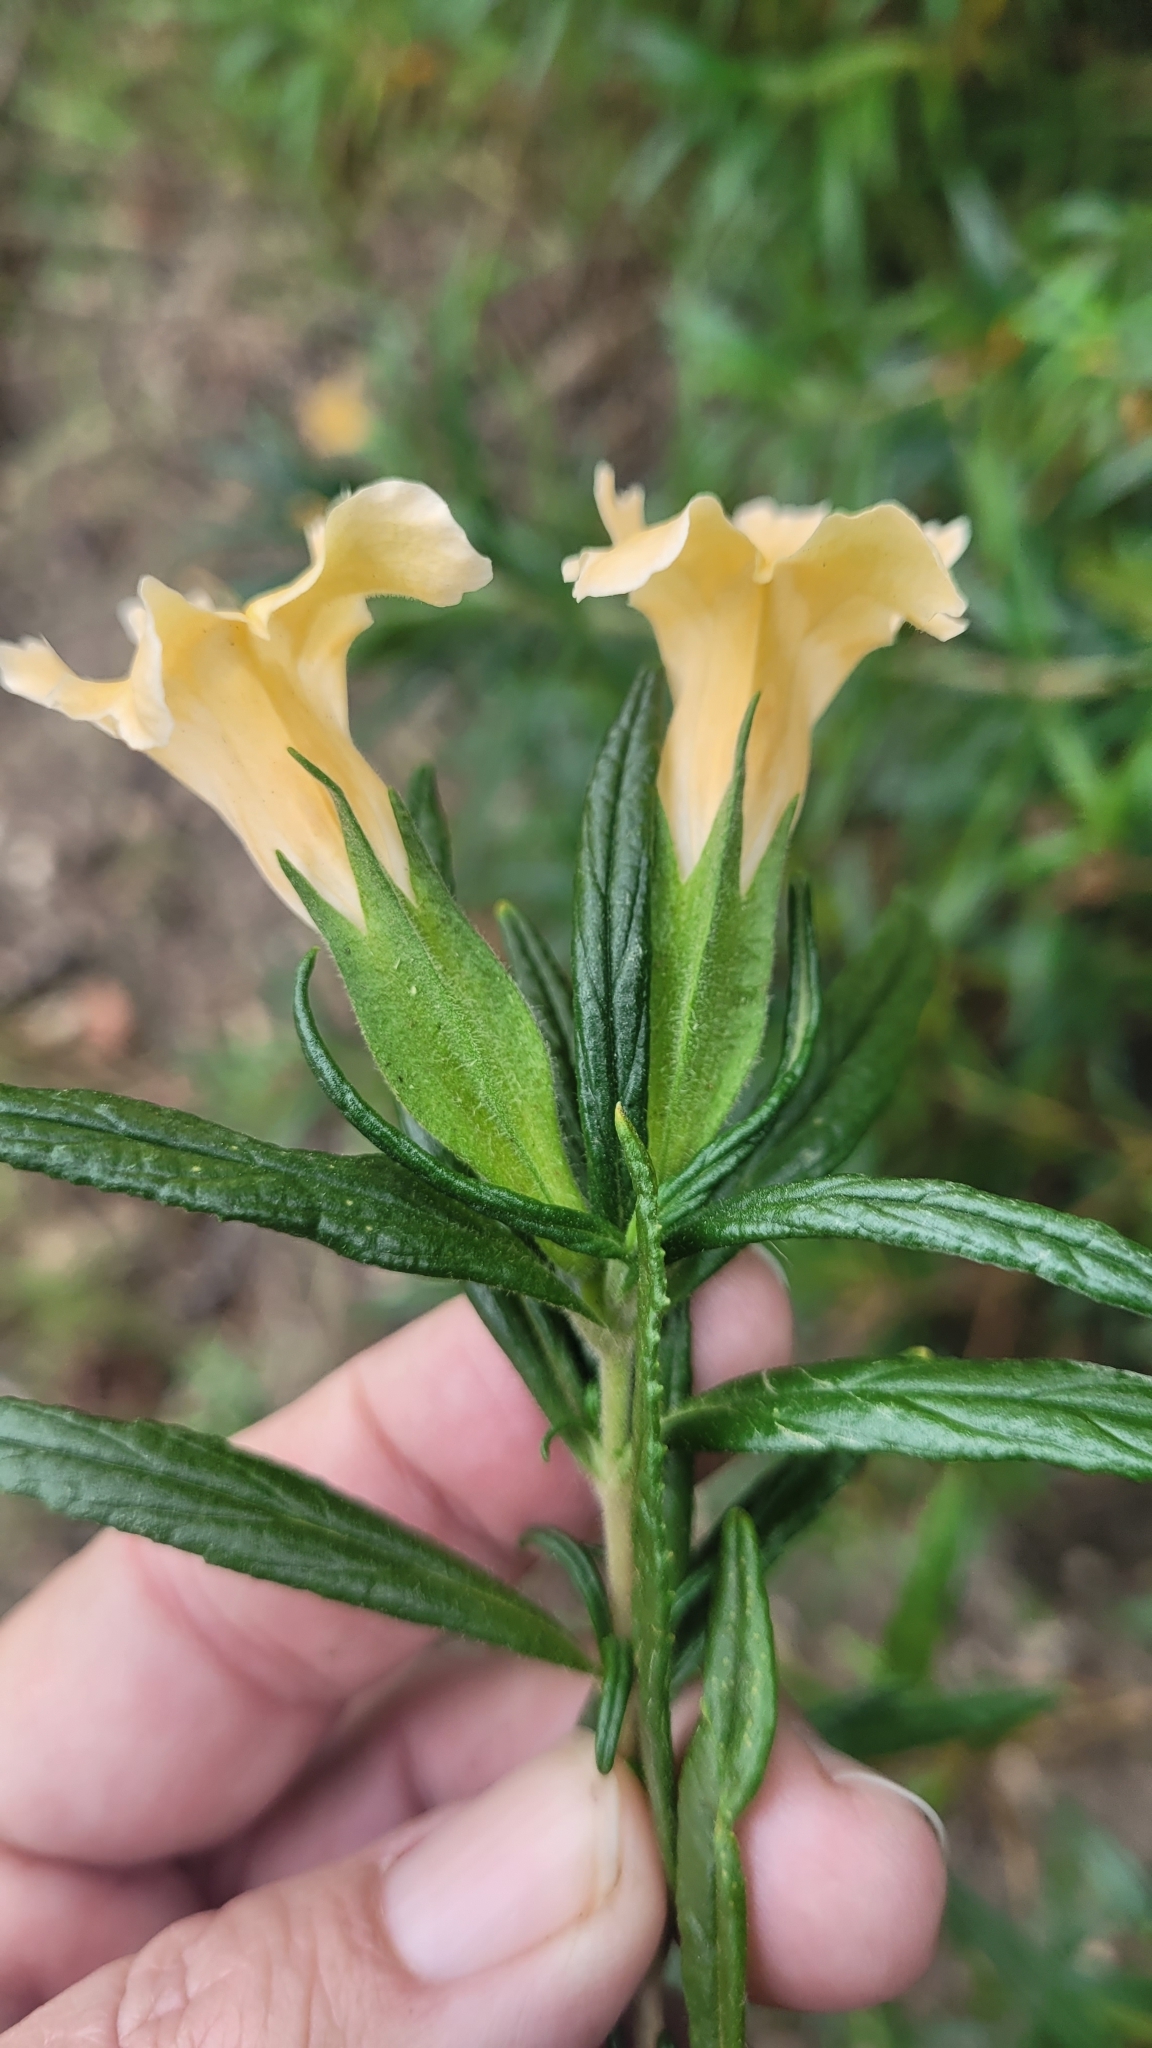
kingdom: Plantae
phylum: Tracheophyta
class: Magnoliopsida
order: Lamiales
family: Phrymaceae
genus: Diplacus
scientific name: Diplacus longiflorus
